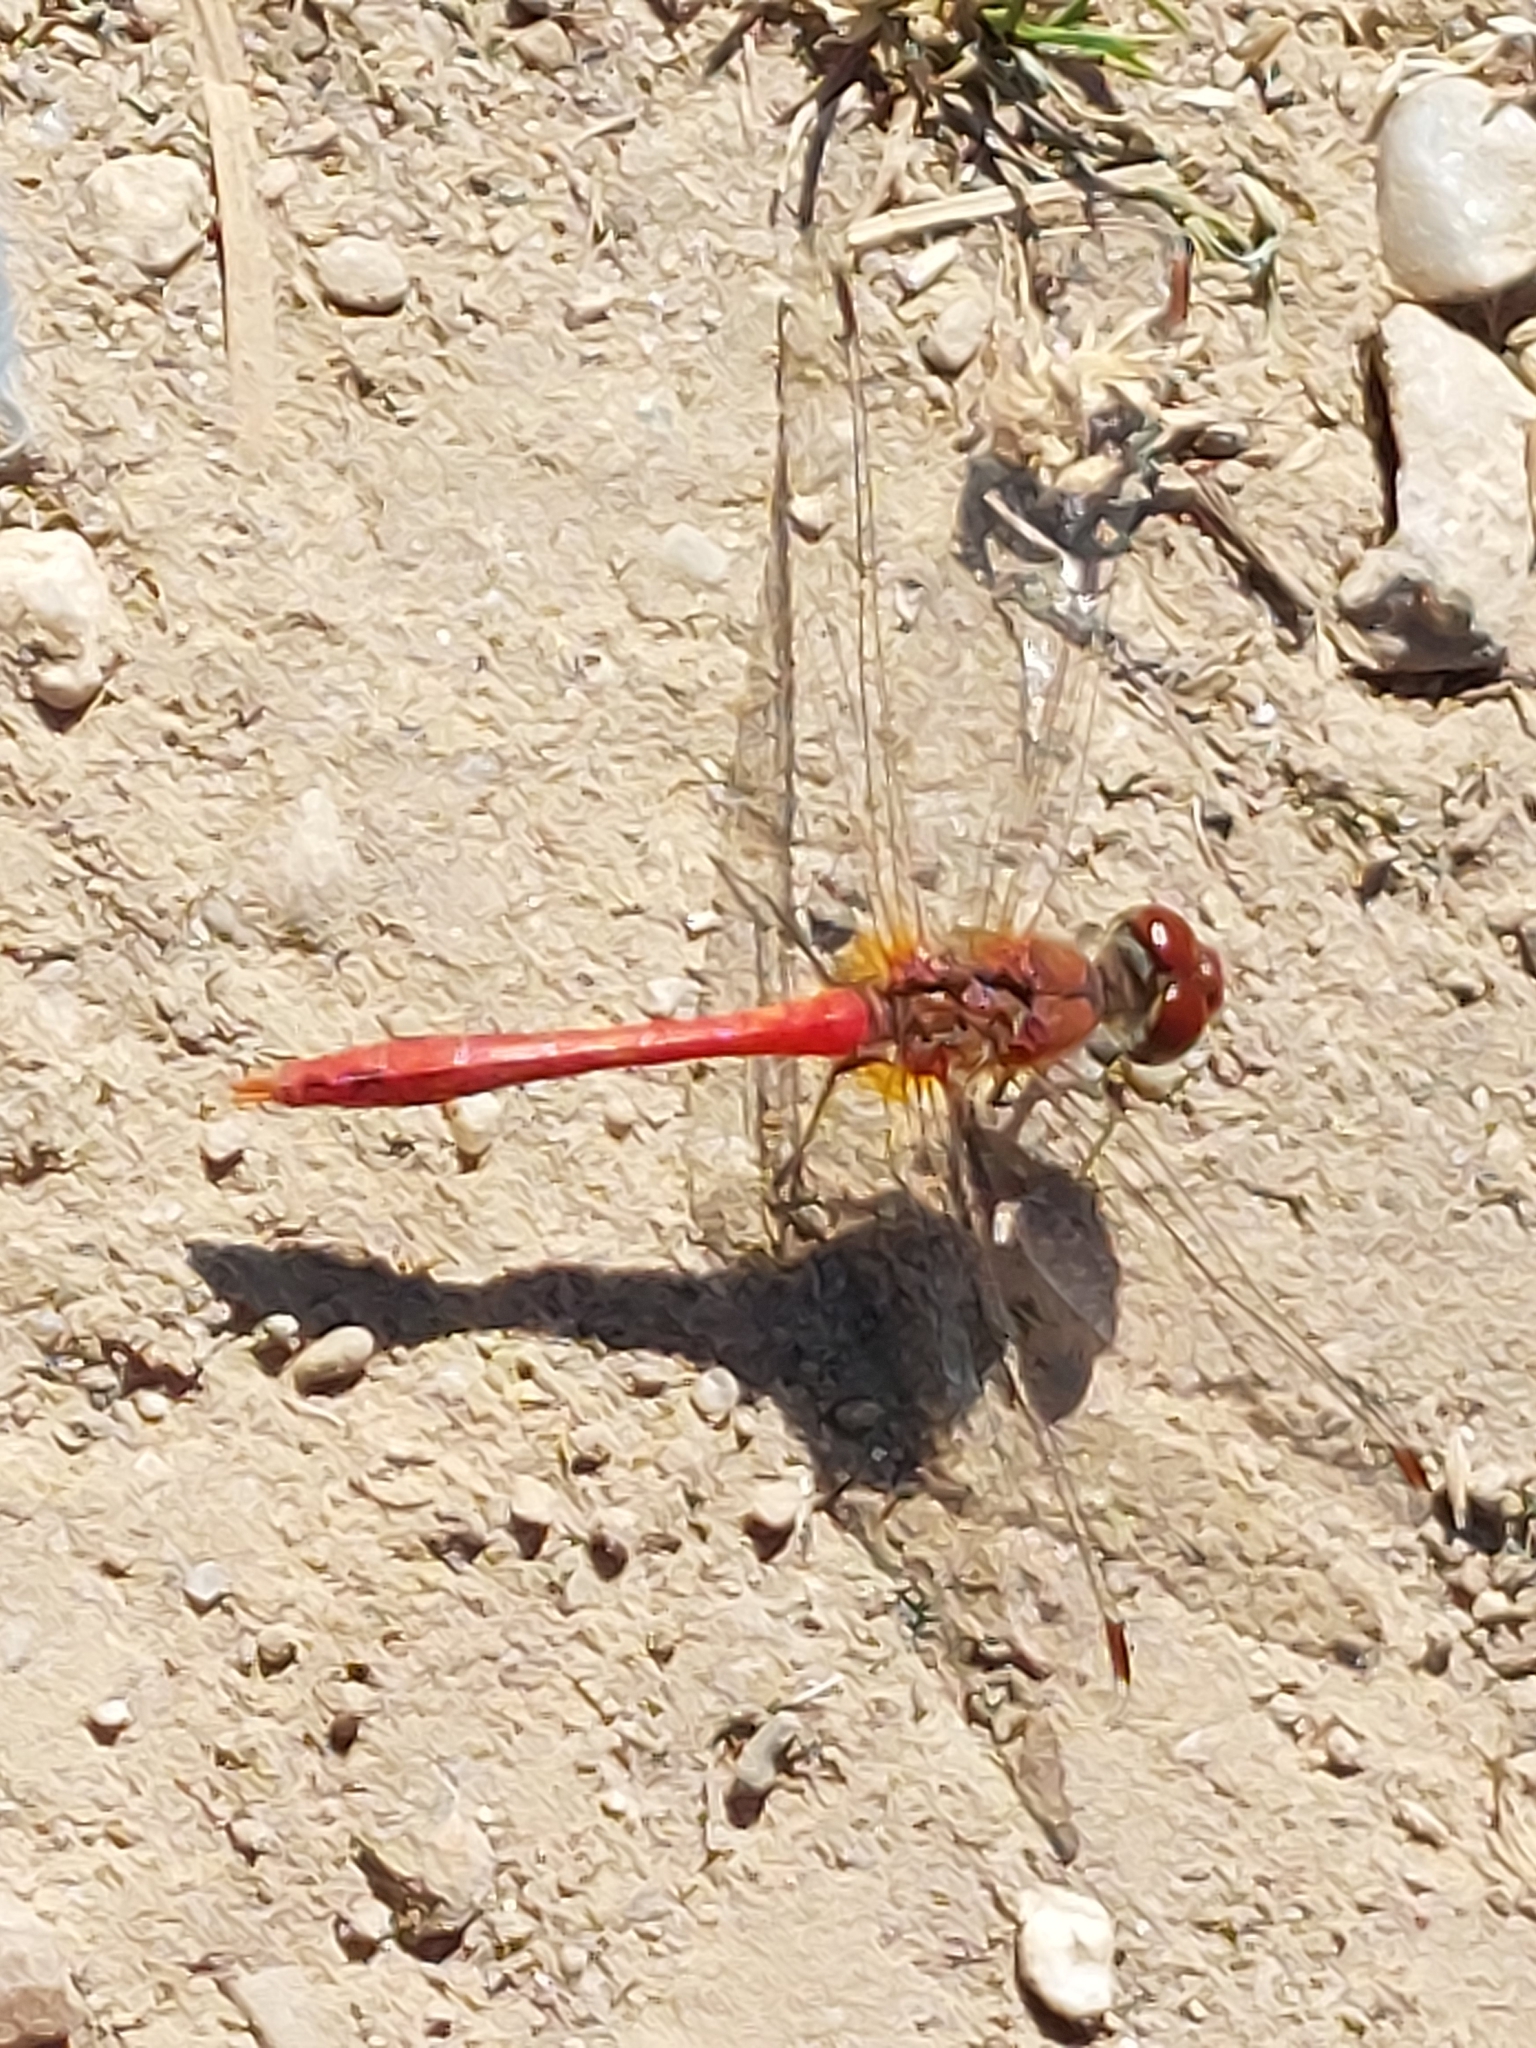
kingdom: Animalia
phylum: Arthropoda
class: Insecta
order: Odonata
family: Libellulidae
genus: Sympetrum
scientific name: Sympetrum sanguineum
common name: Ruddy darter
